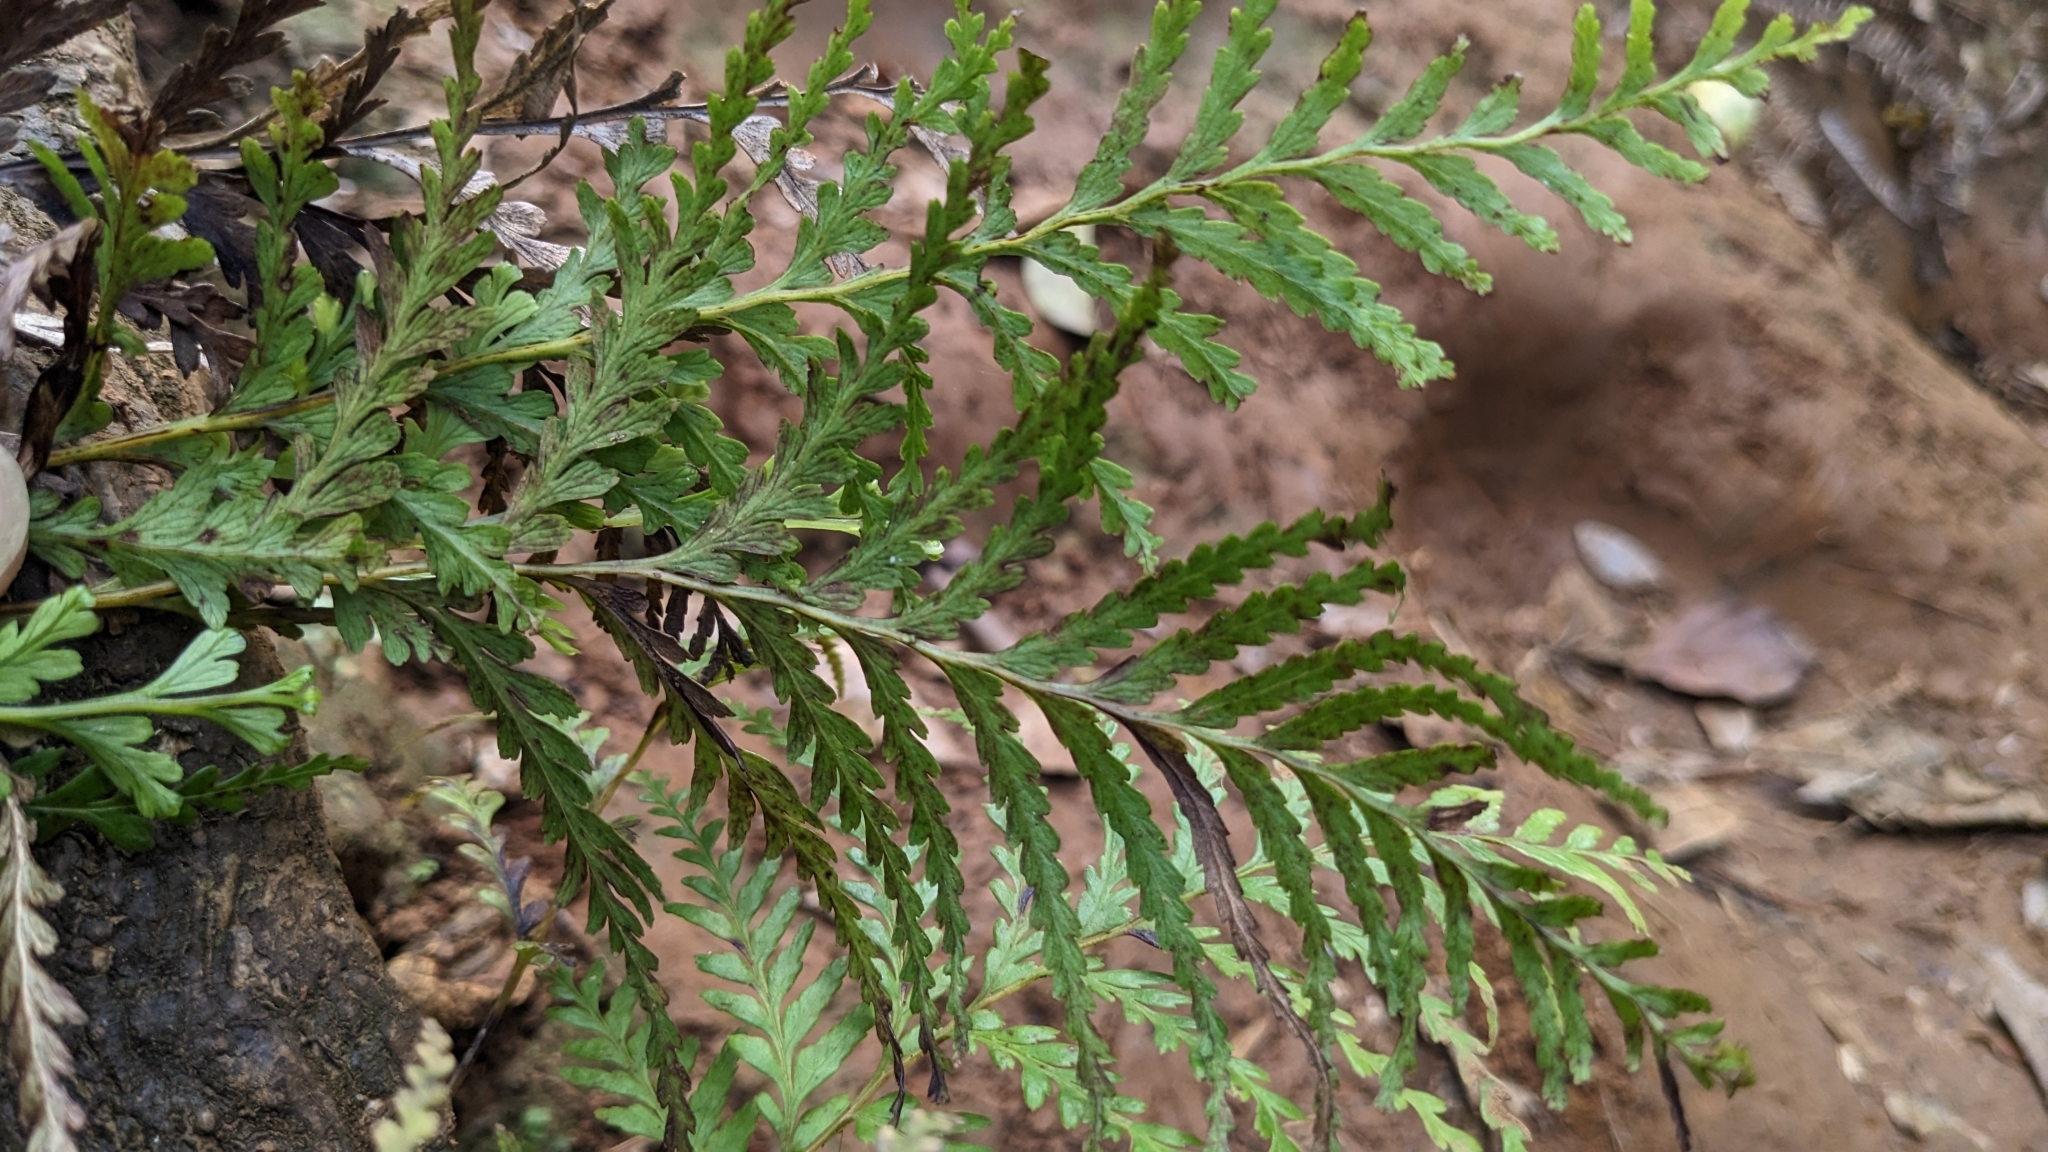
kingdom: Plantae
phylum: Tracheophyta
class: Polypodiopsida
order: Polypodiales
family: Lindsaeaceae
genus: Tapeinidium
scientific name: Tapeinidium biserratum
